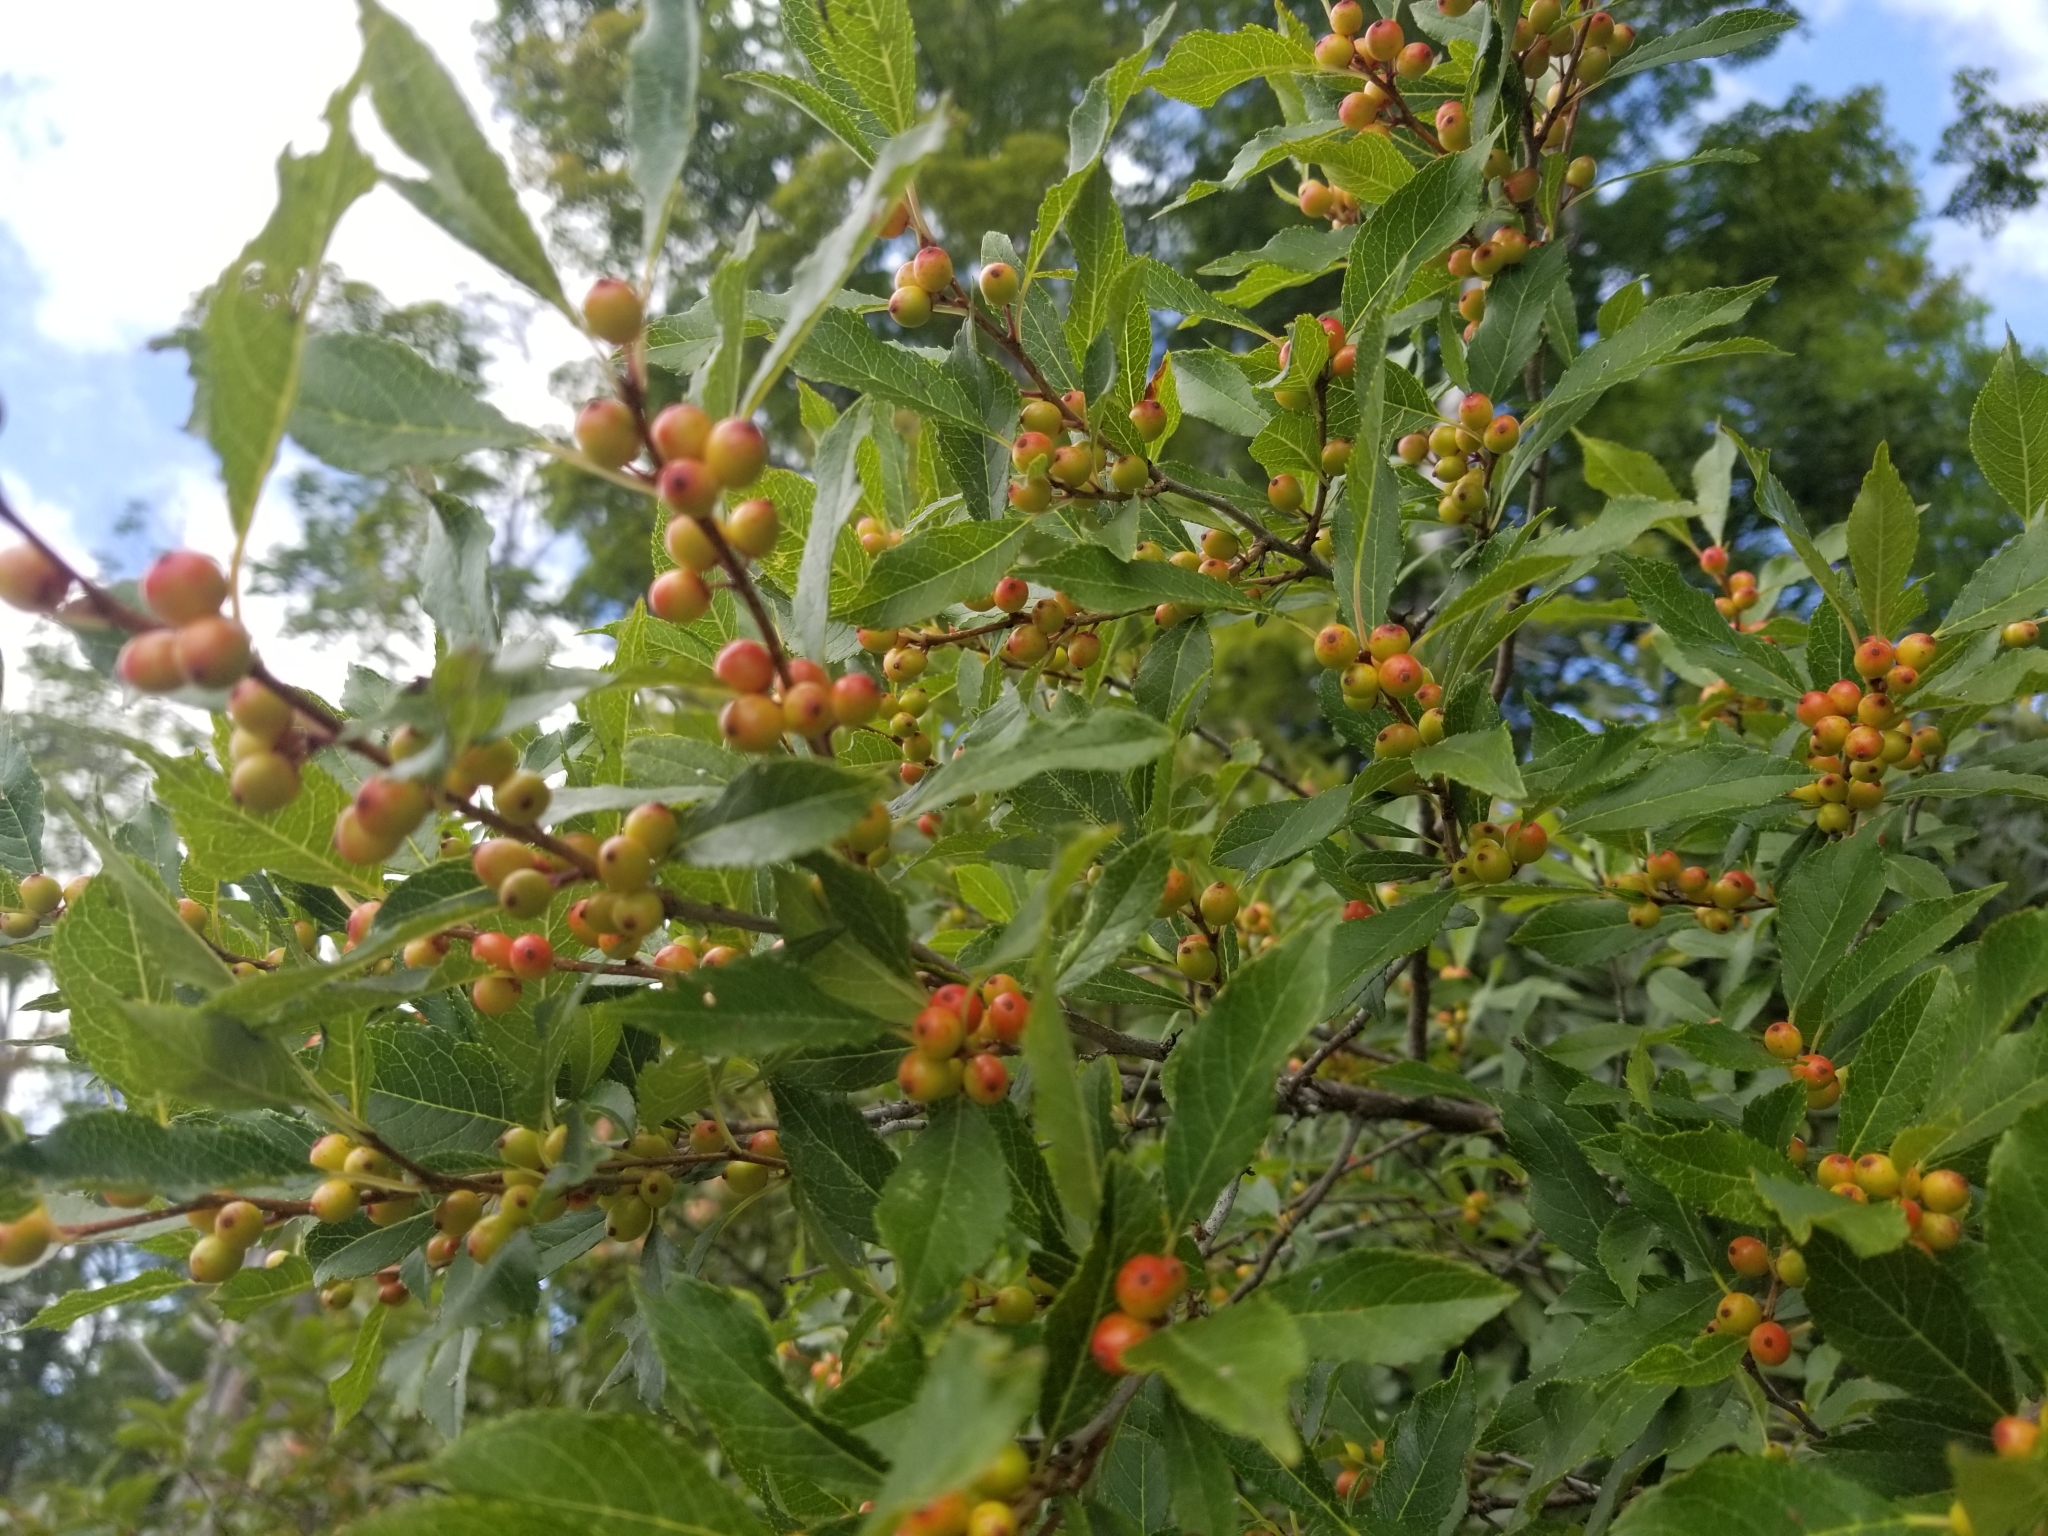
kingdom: Plantae
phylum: Tracheophyta
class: Magnoliopsida
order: Aquifoliales
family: Aquifoliaceae
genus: Ilex
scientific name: Ilex verticillata
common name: Virginia winterberry
